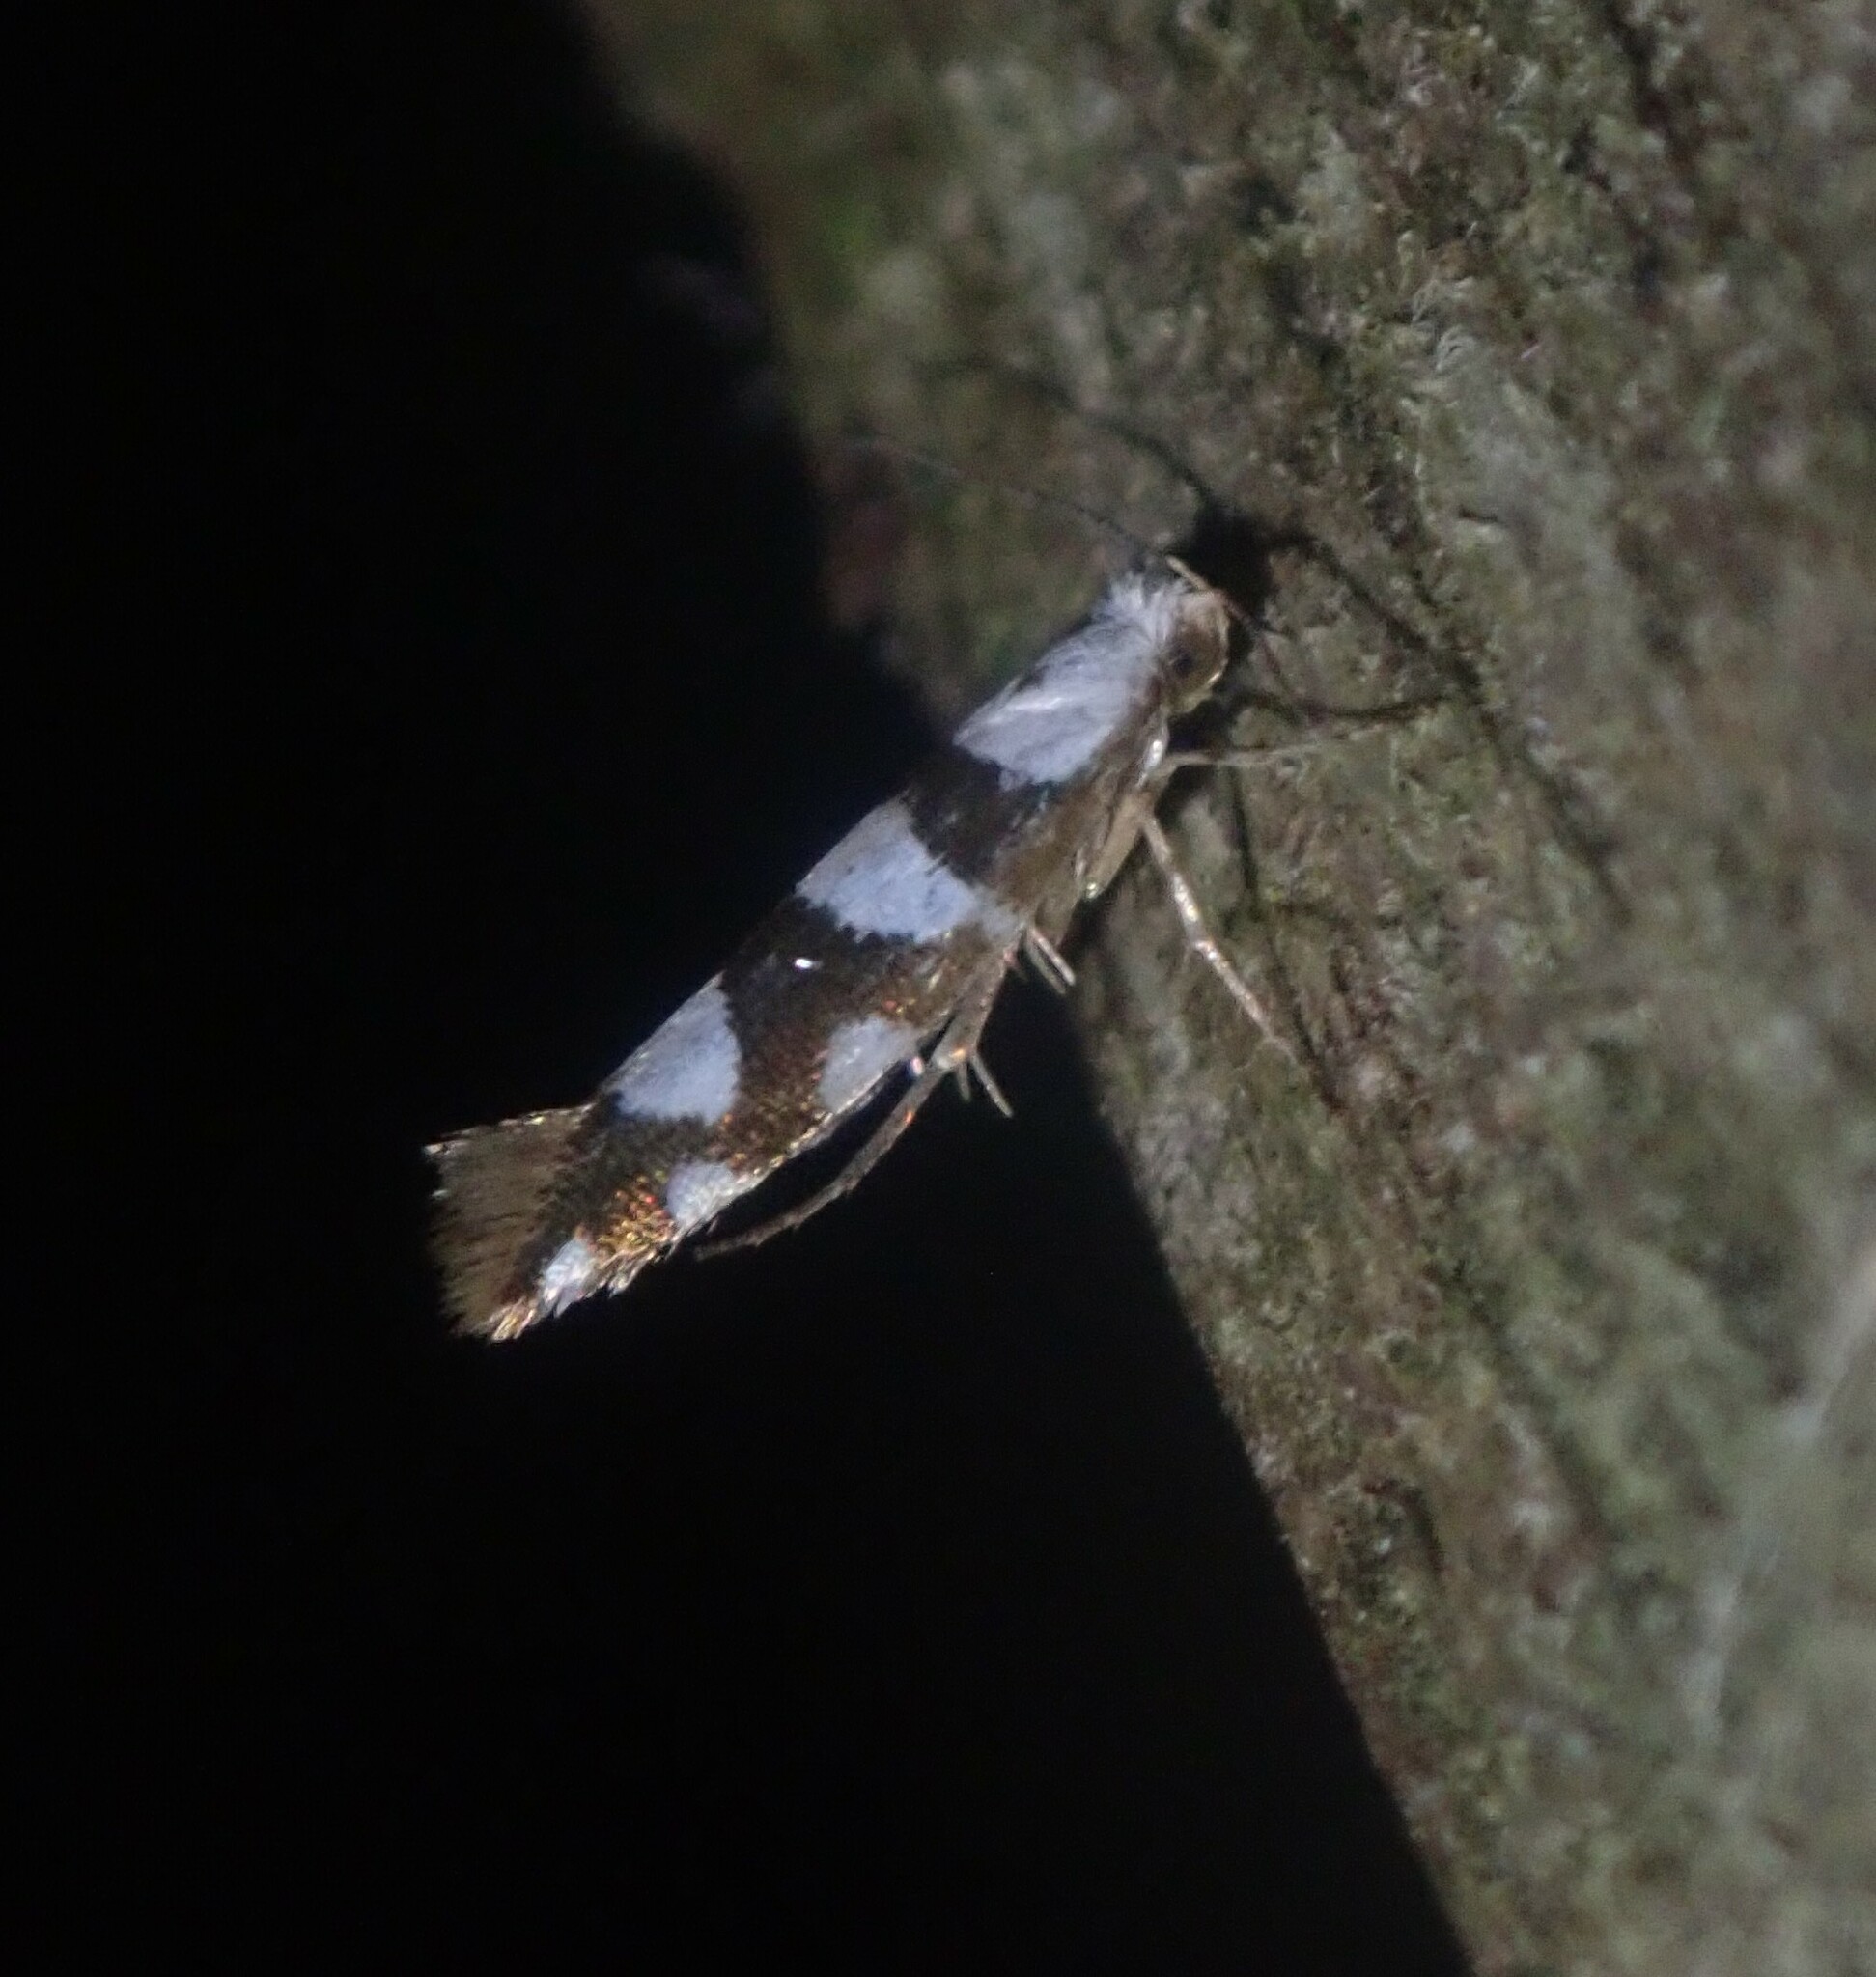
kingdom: Animalia
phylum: Arthropoda
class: Insecta
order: Lepidoptera
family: Argyresthiidae
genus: Argyresthia
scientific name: Argyresthia brockeella
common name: Gold-ribbon argent
